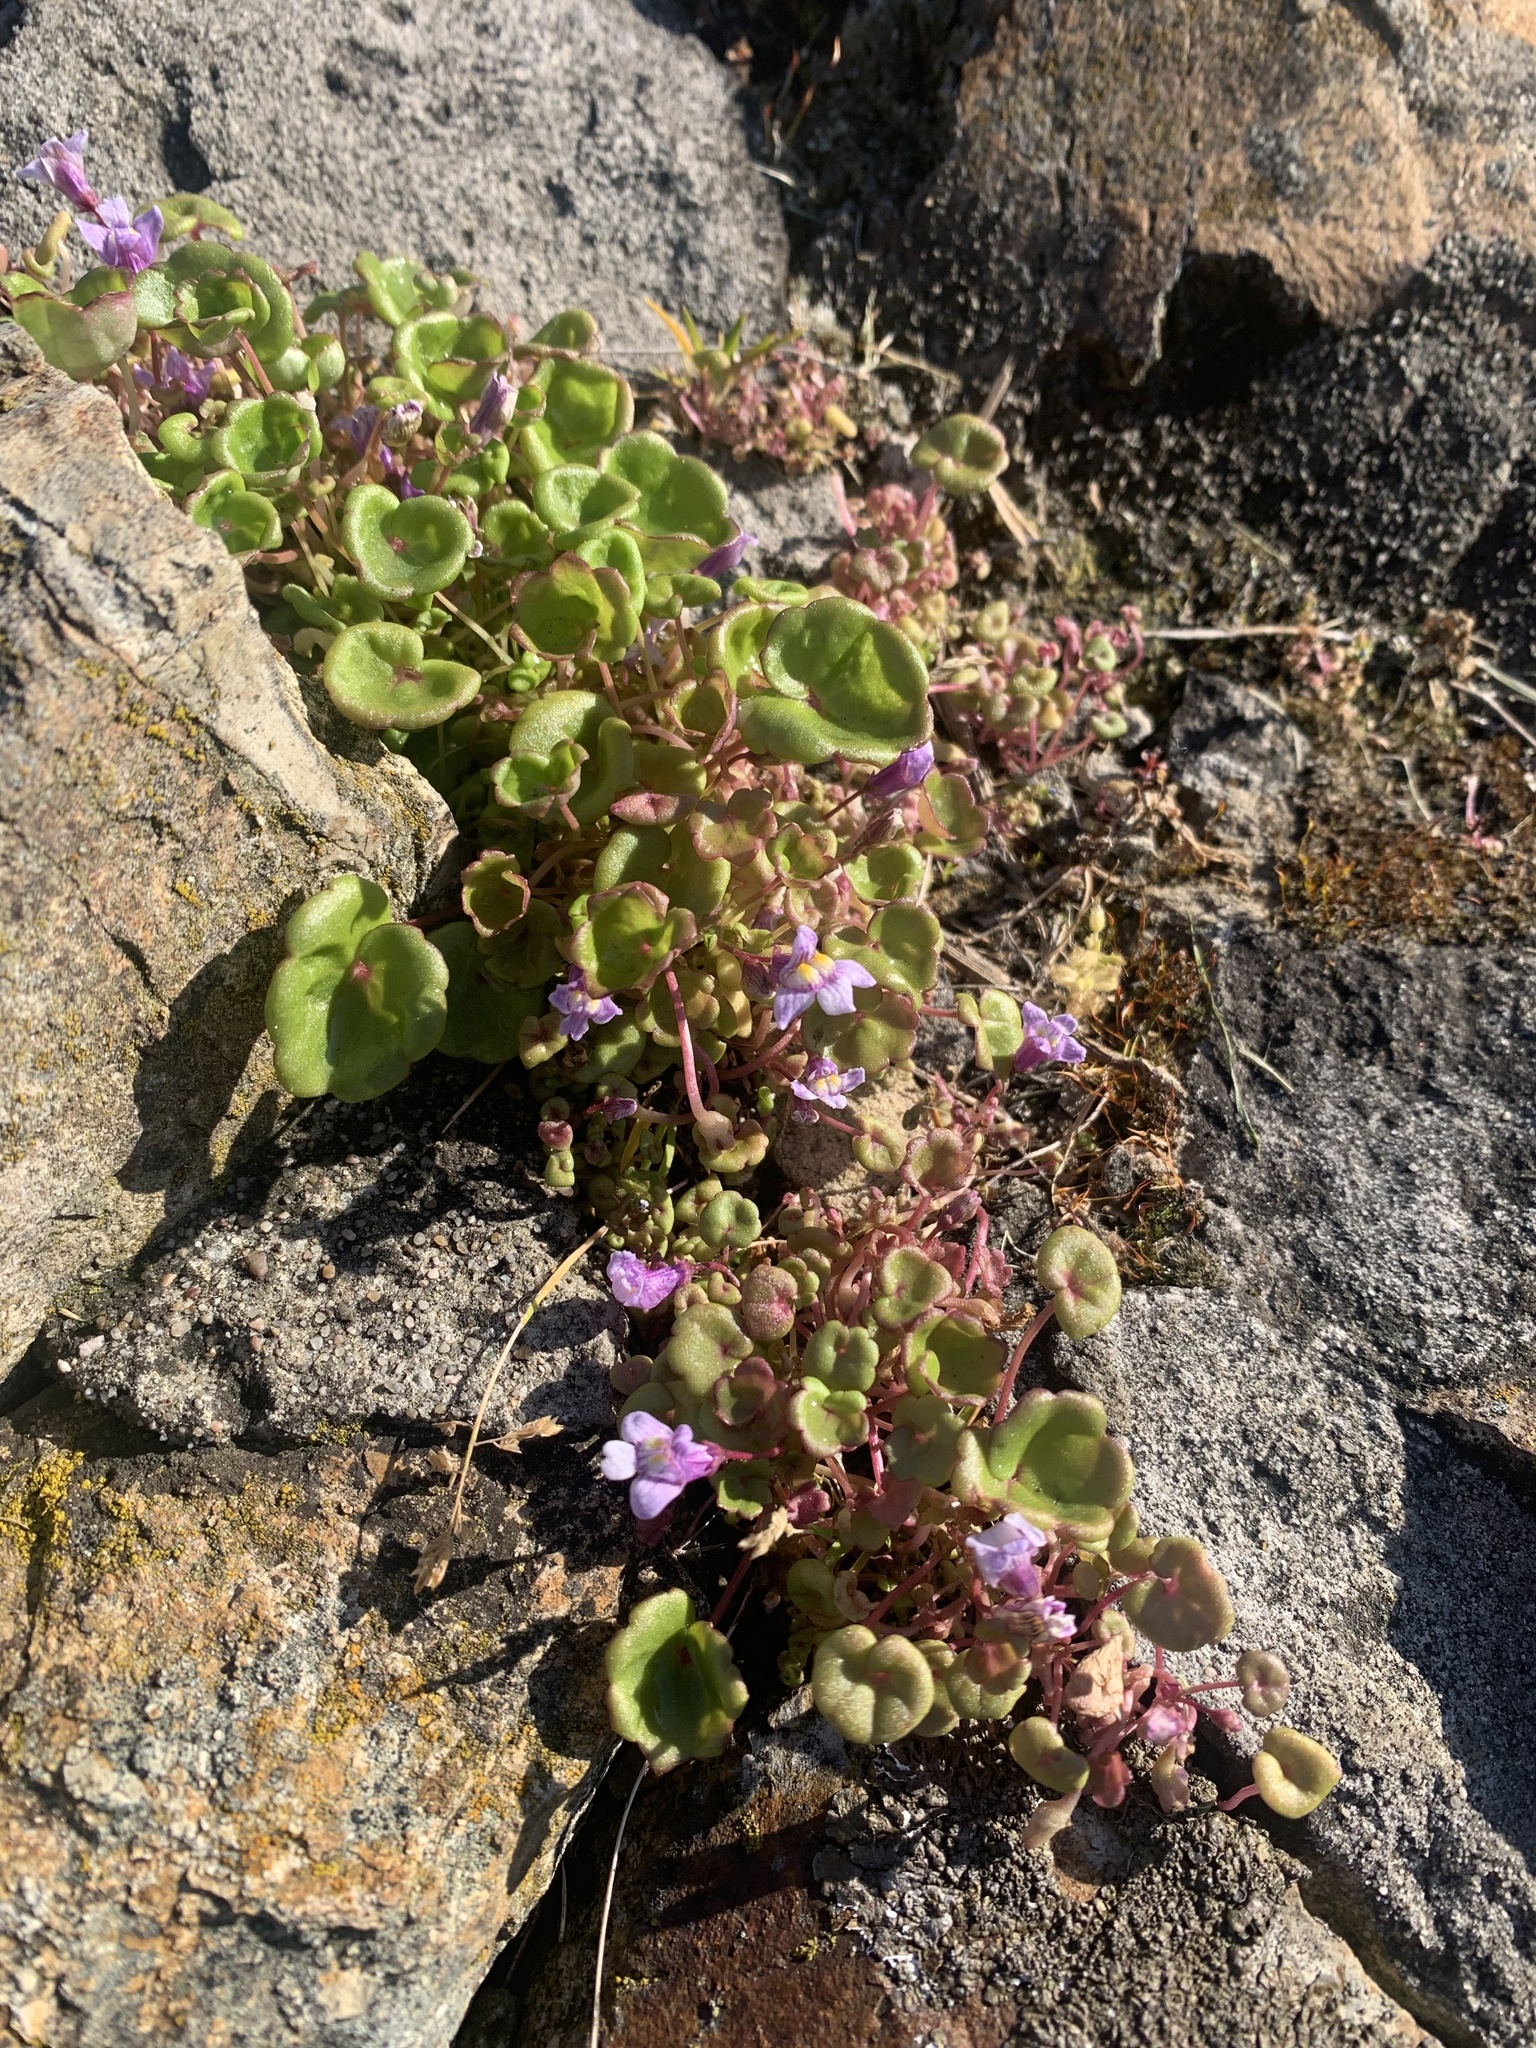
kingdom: Plantae
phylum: Tracheophyta
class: Magnoliopsida
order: Lamiales
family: Plantaginaceae
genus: Cymbalaria
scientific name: Cymbalaria muralis
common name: Ivy-leaved toadflax
